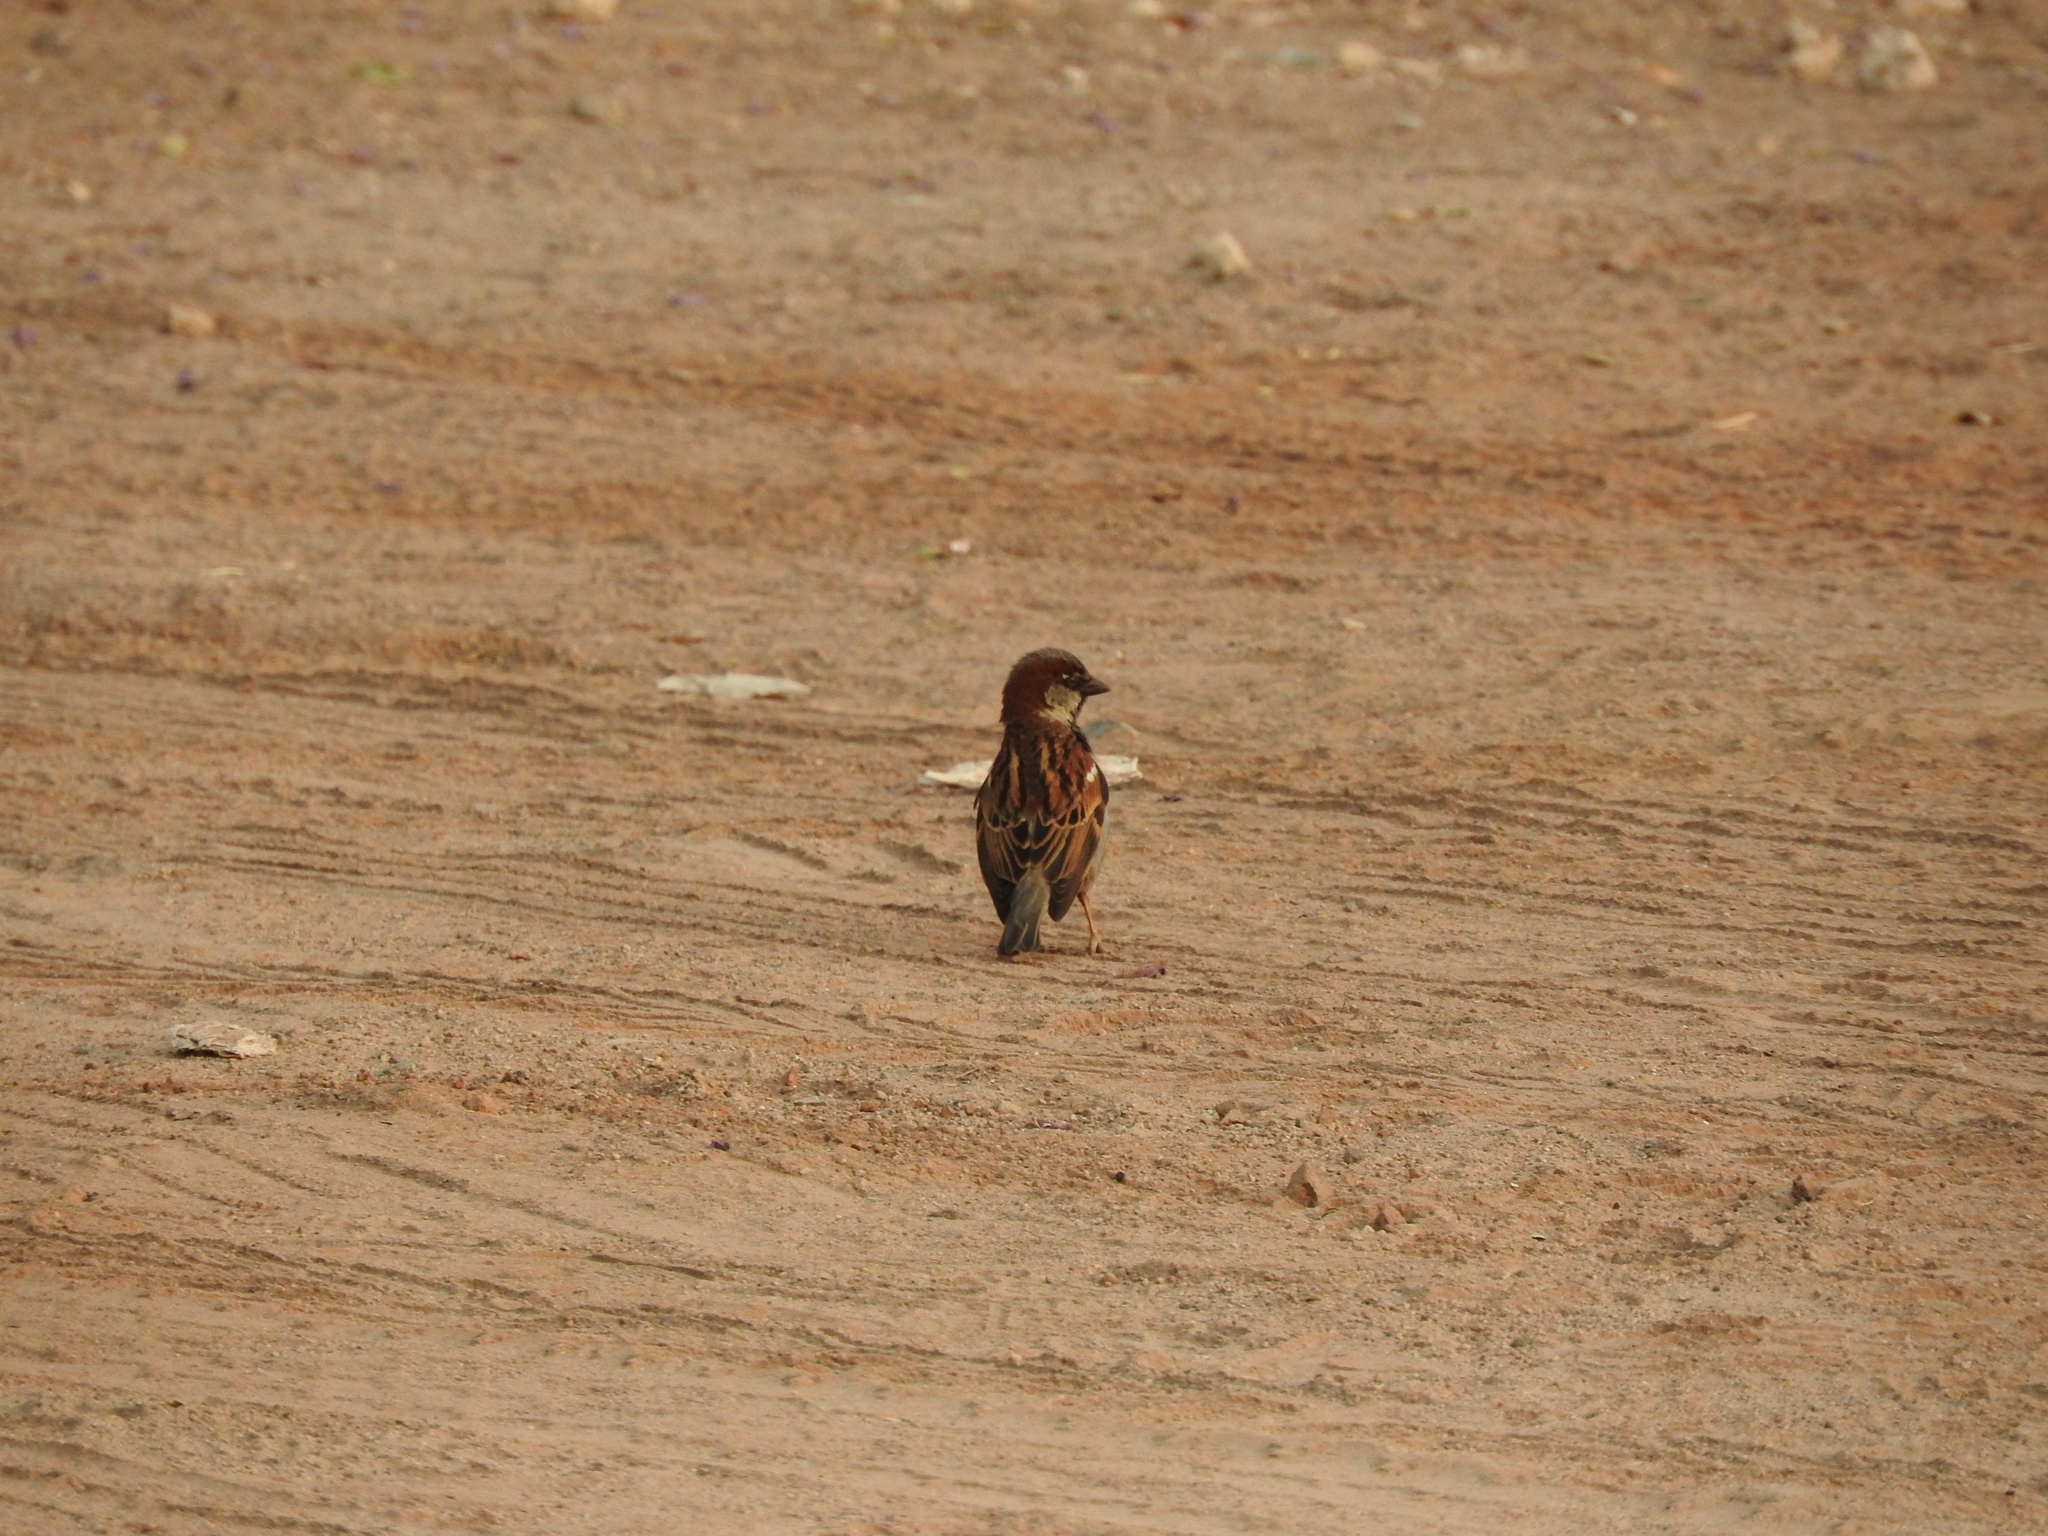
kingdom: Animalia
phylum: Chordata
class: Aves
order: Passeriformes
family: Passeridae
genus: Passer
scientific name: Passer domesticus
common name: House sparrow
